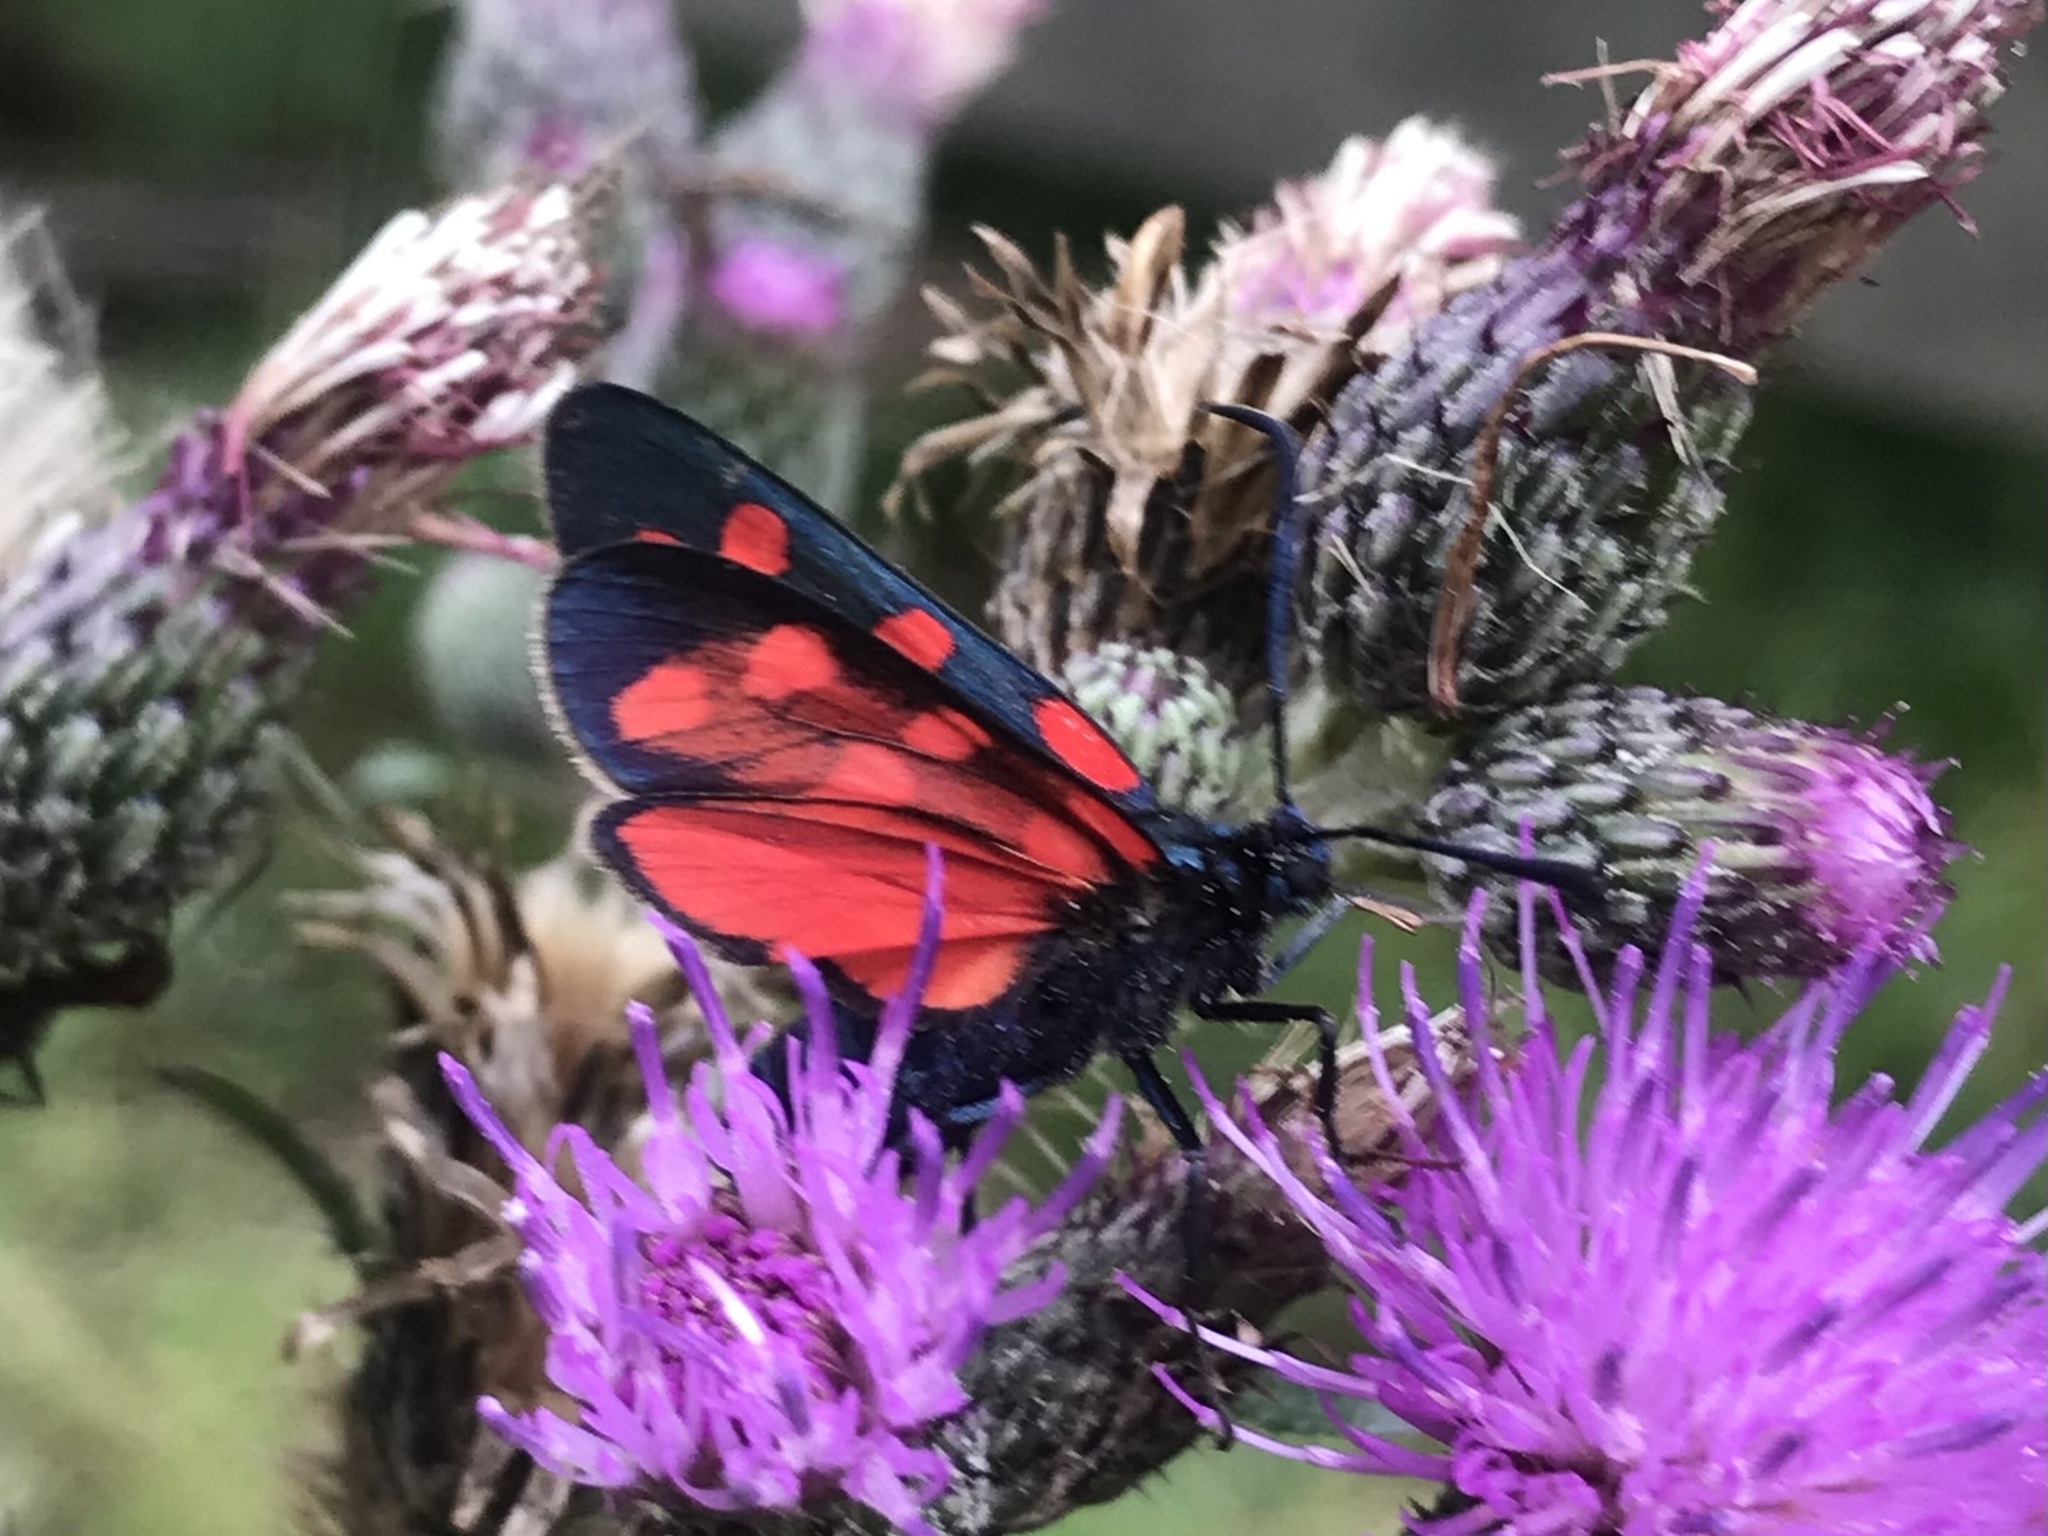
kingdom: Animalia
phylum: Arthropoda
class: Insecta
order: Lepidoptera
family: Zygaenidae
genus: Zygaena
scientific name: Zygaena transalpina
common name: Southern six spot burnet
